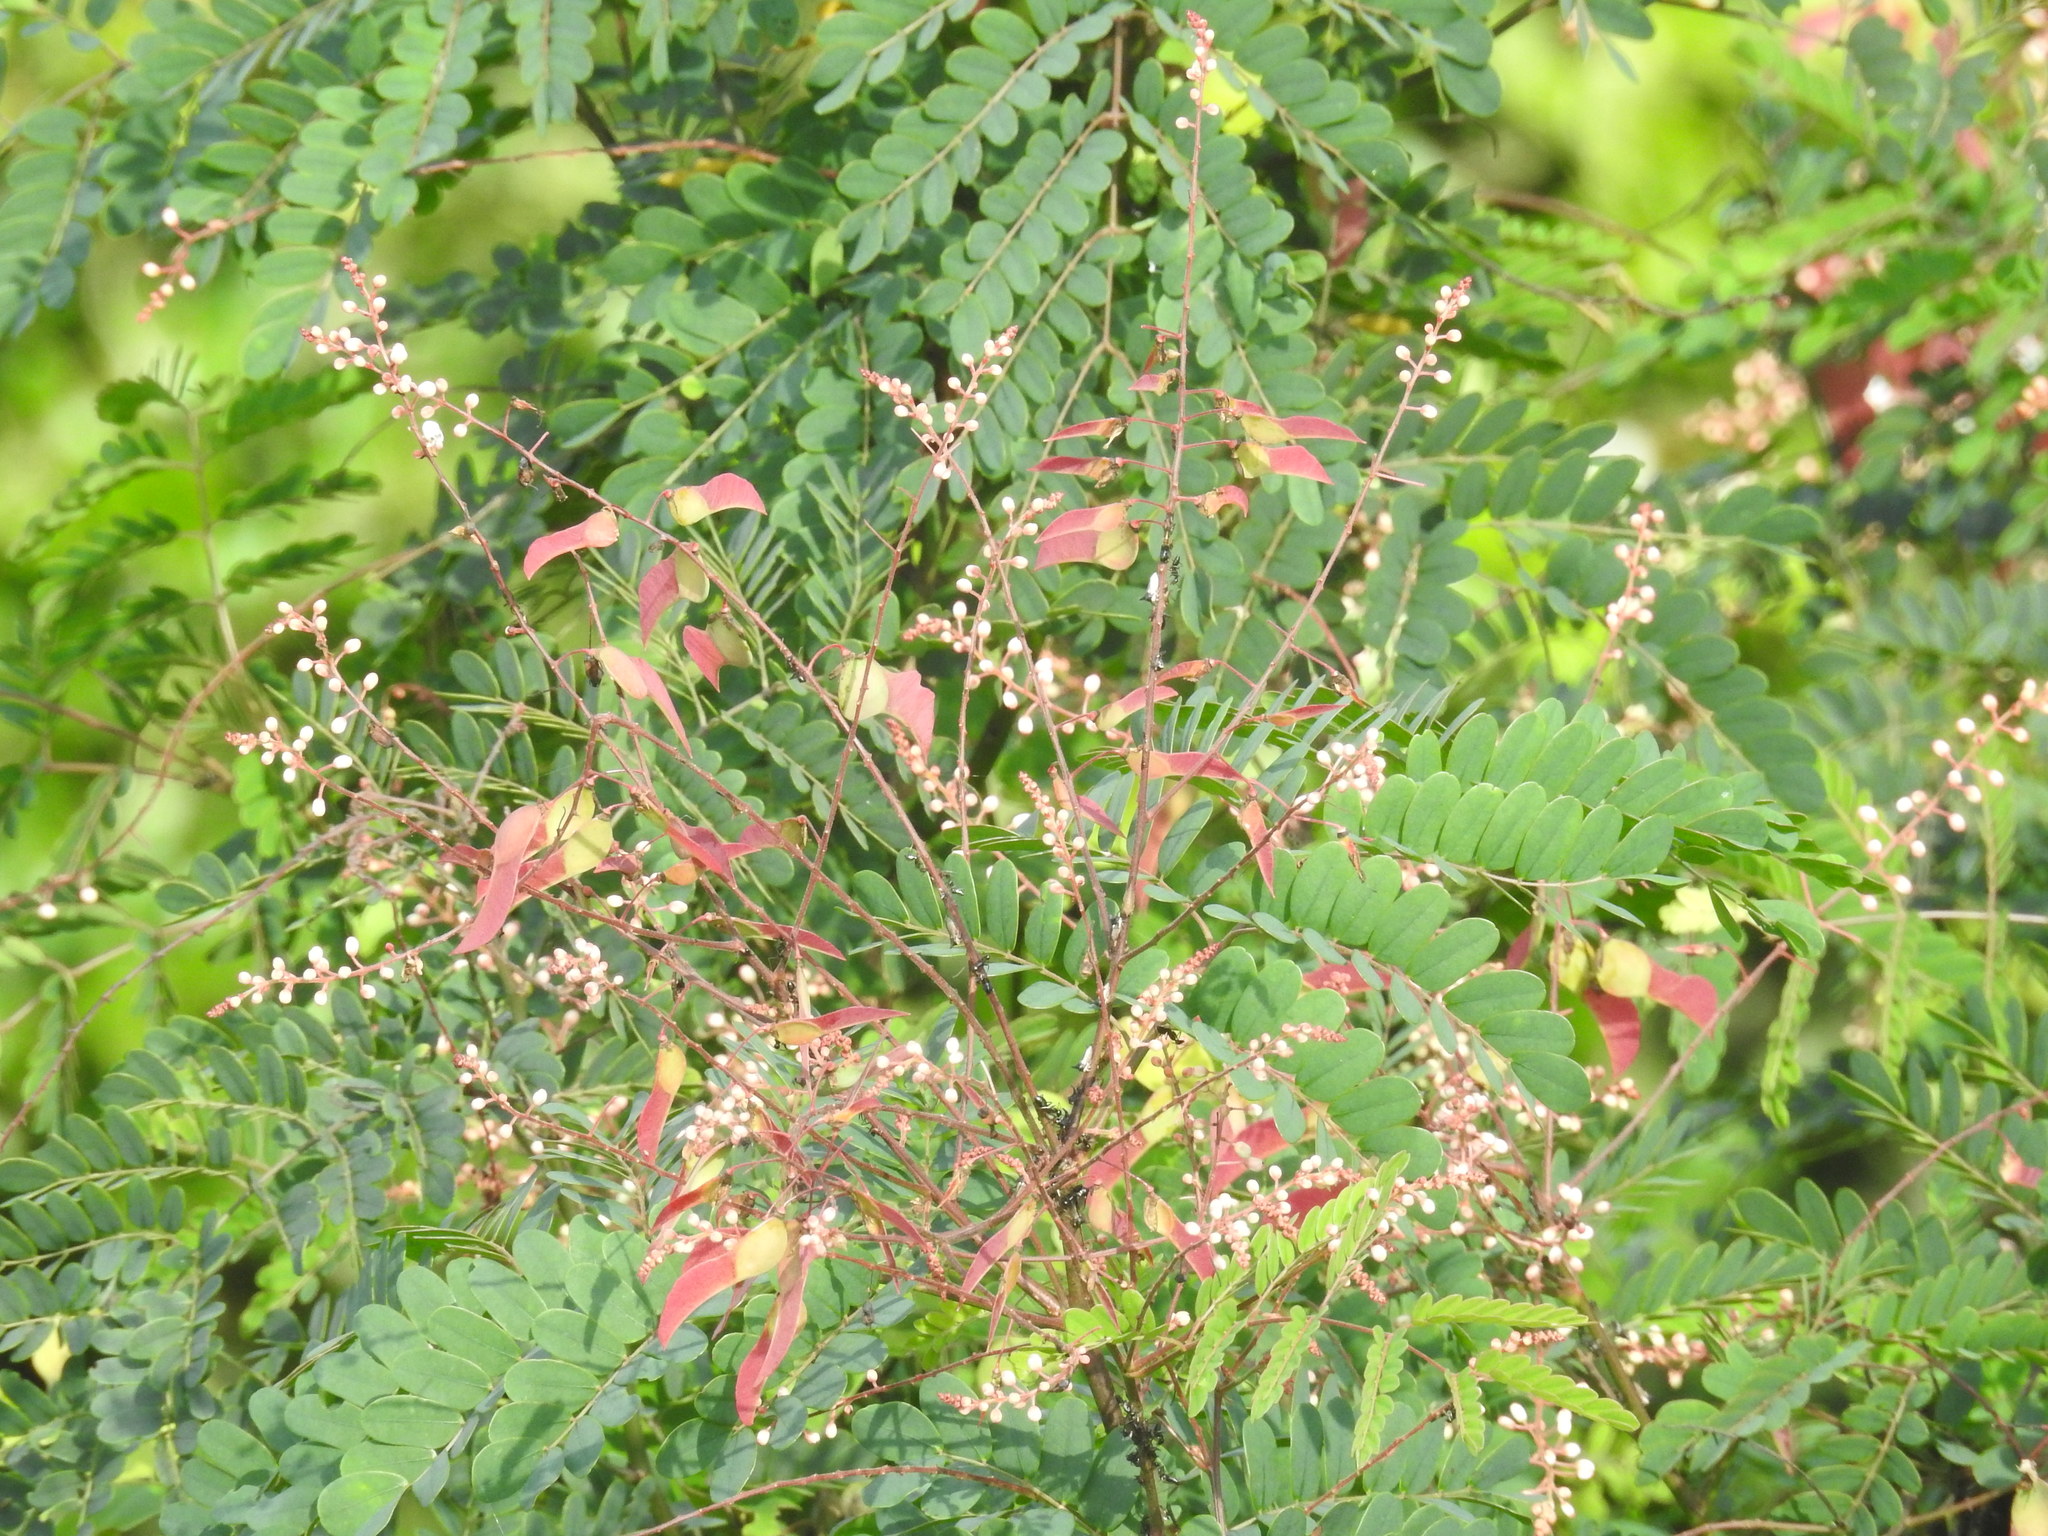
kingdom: Plantae
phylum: Tracheophyta
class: Magnoliopsida
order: Fabales
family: Fabaceae
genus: Pterolobium
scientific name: Pterolobium hexapetalum
